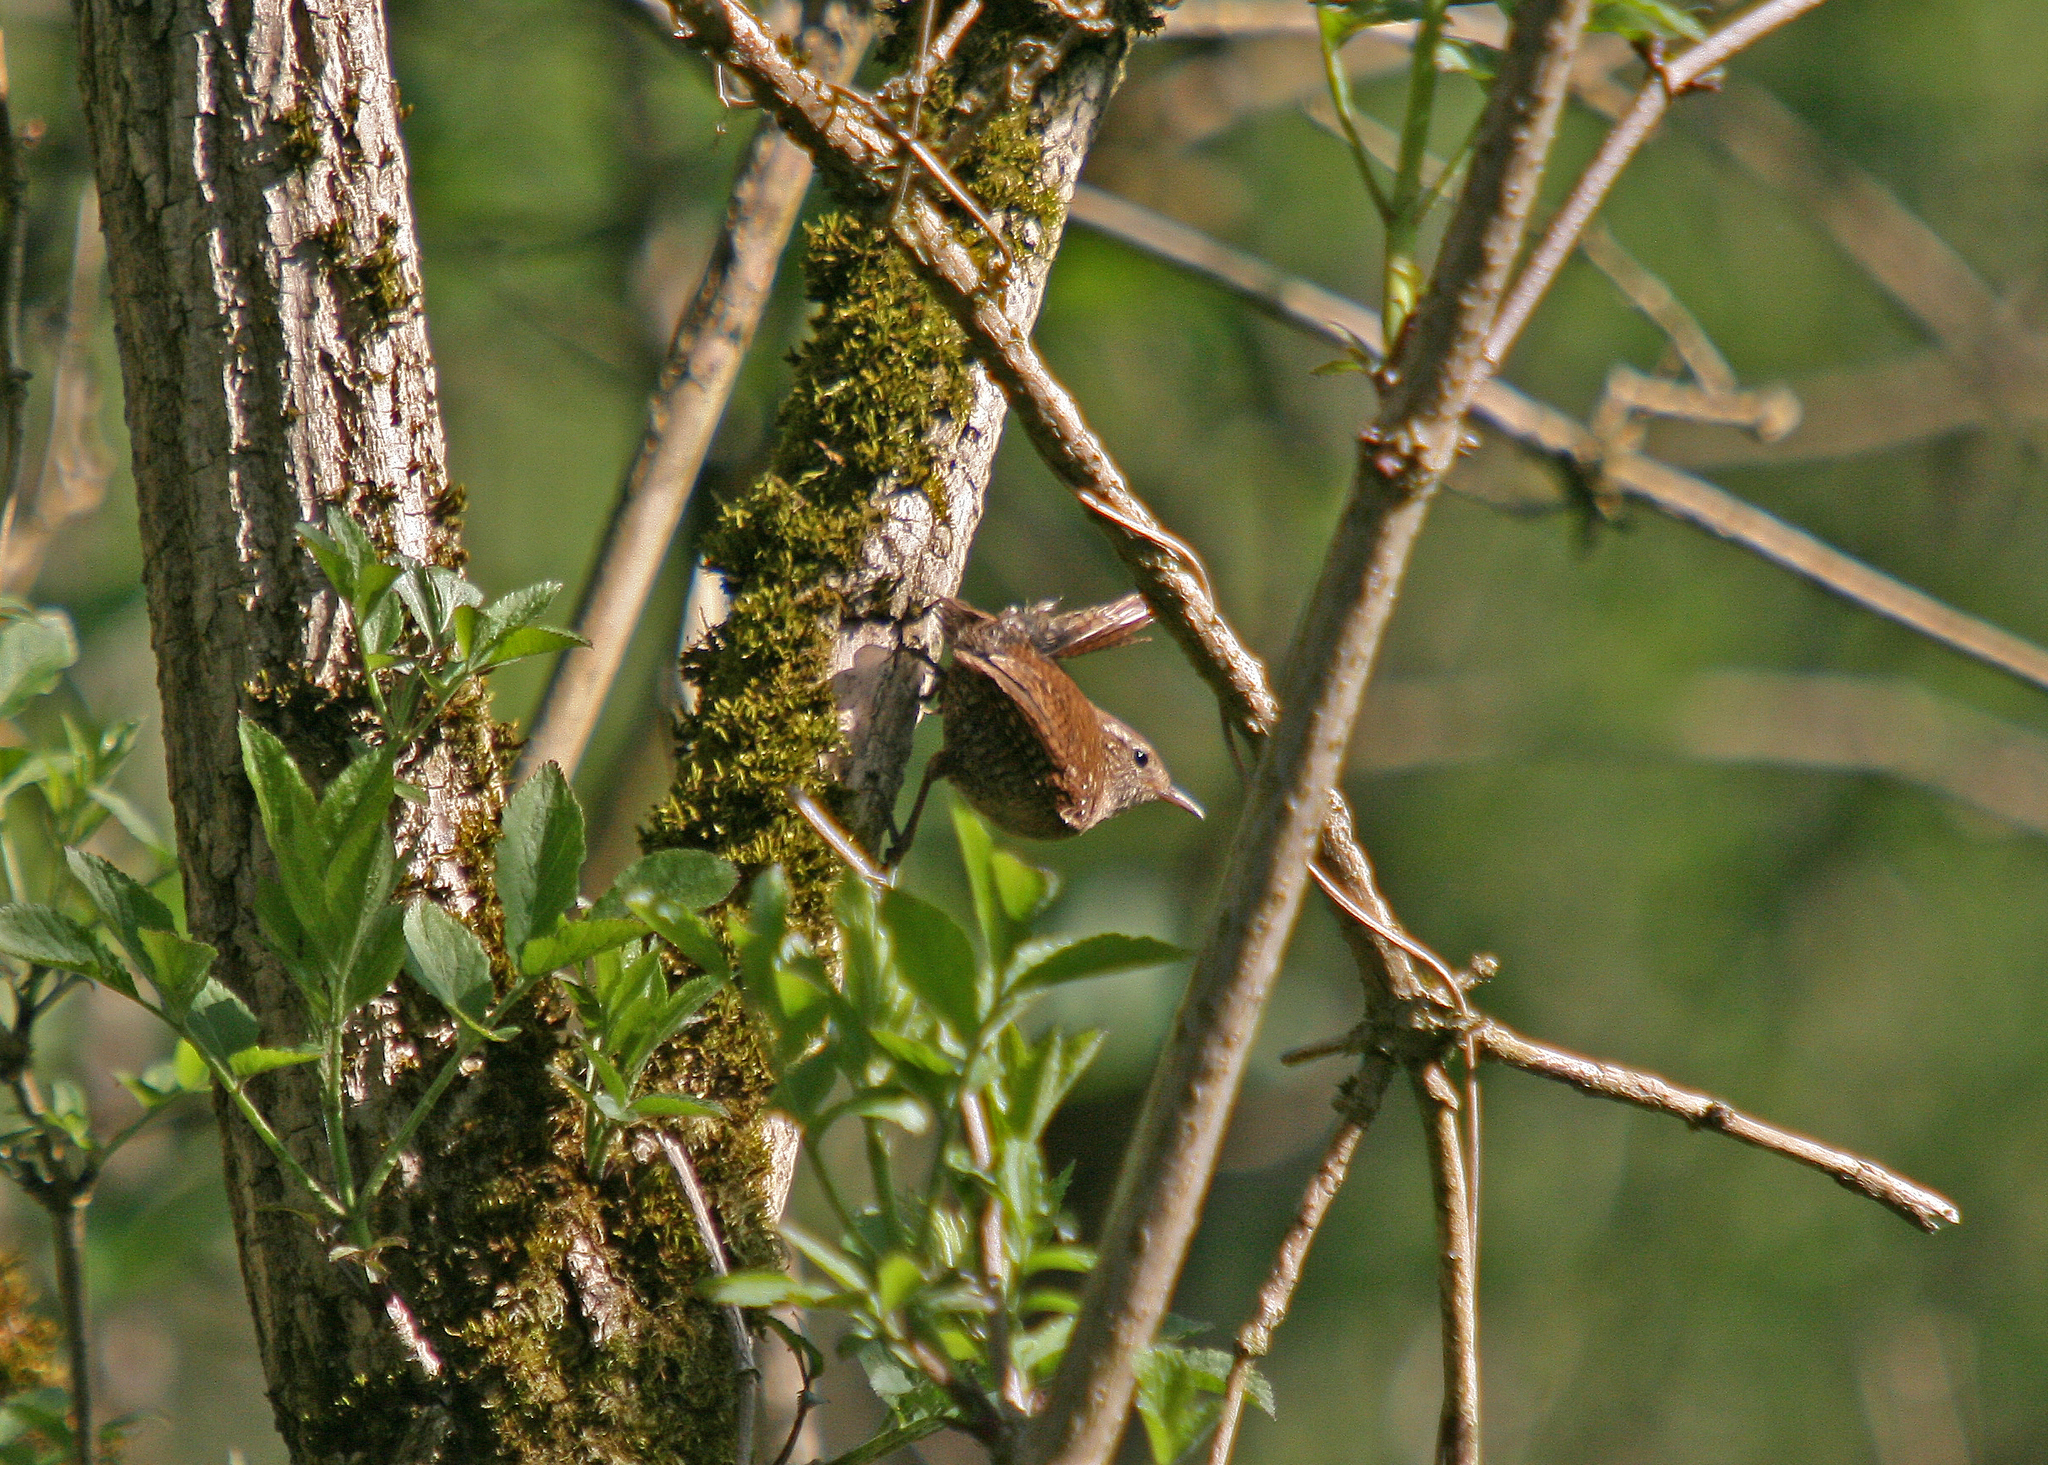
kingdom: Animalia
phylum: Chordata
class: Aves
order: Passeriformes
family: Troglodytidae
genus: Troglodytes
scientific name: Troglodytes troglodytes
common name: Eurasian wren
